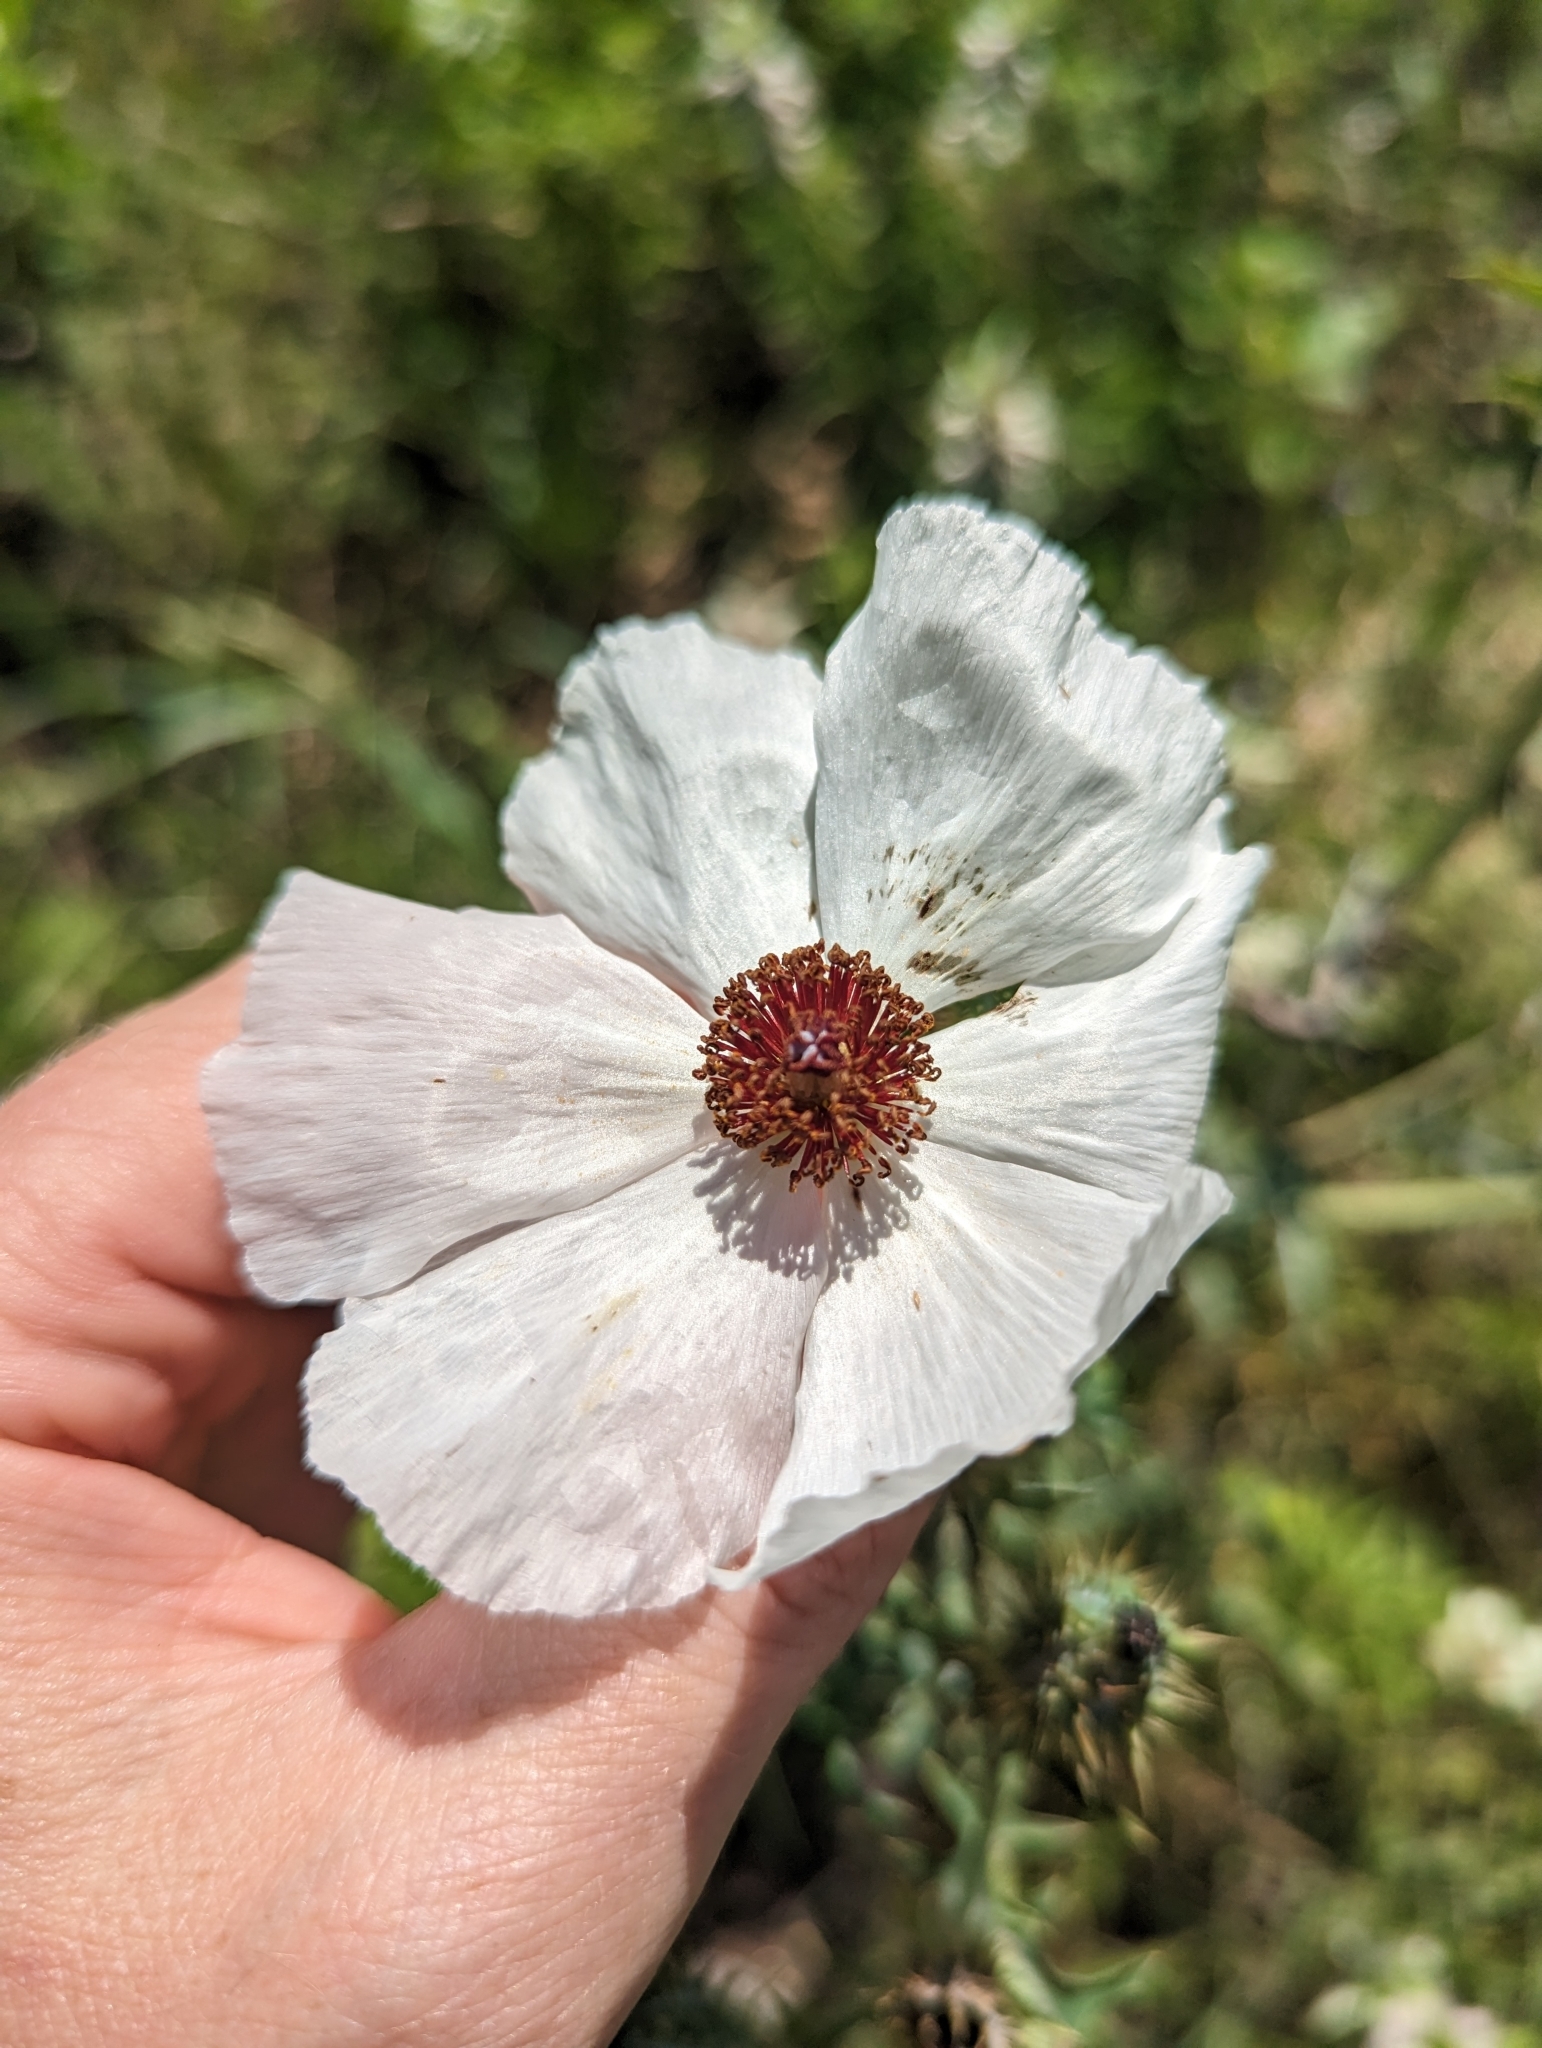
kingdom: Plantae
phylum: Tracheophyta
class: Magnoliopsida
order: Ranunculales
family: Papaveraceae
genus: Argemone
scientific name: Argemone sanguinea
